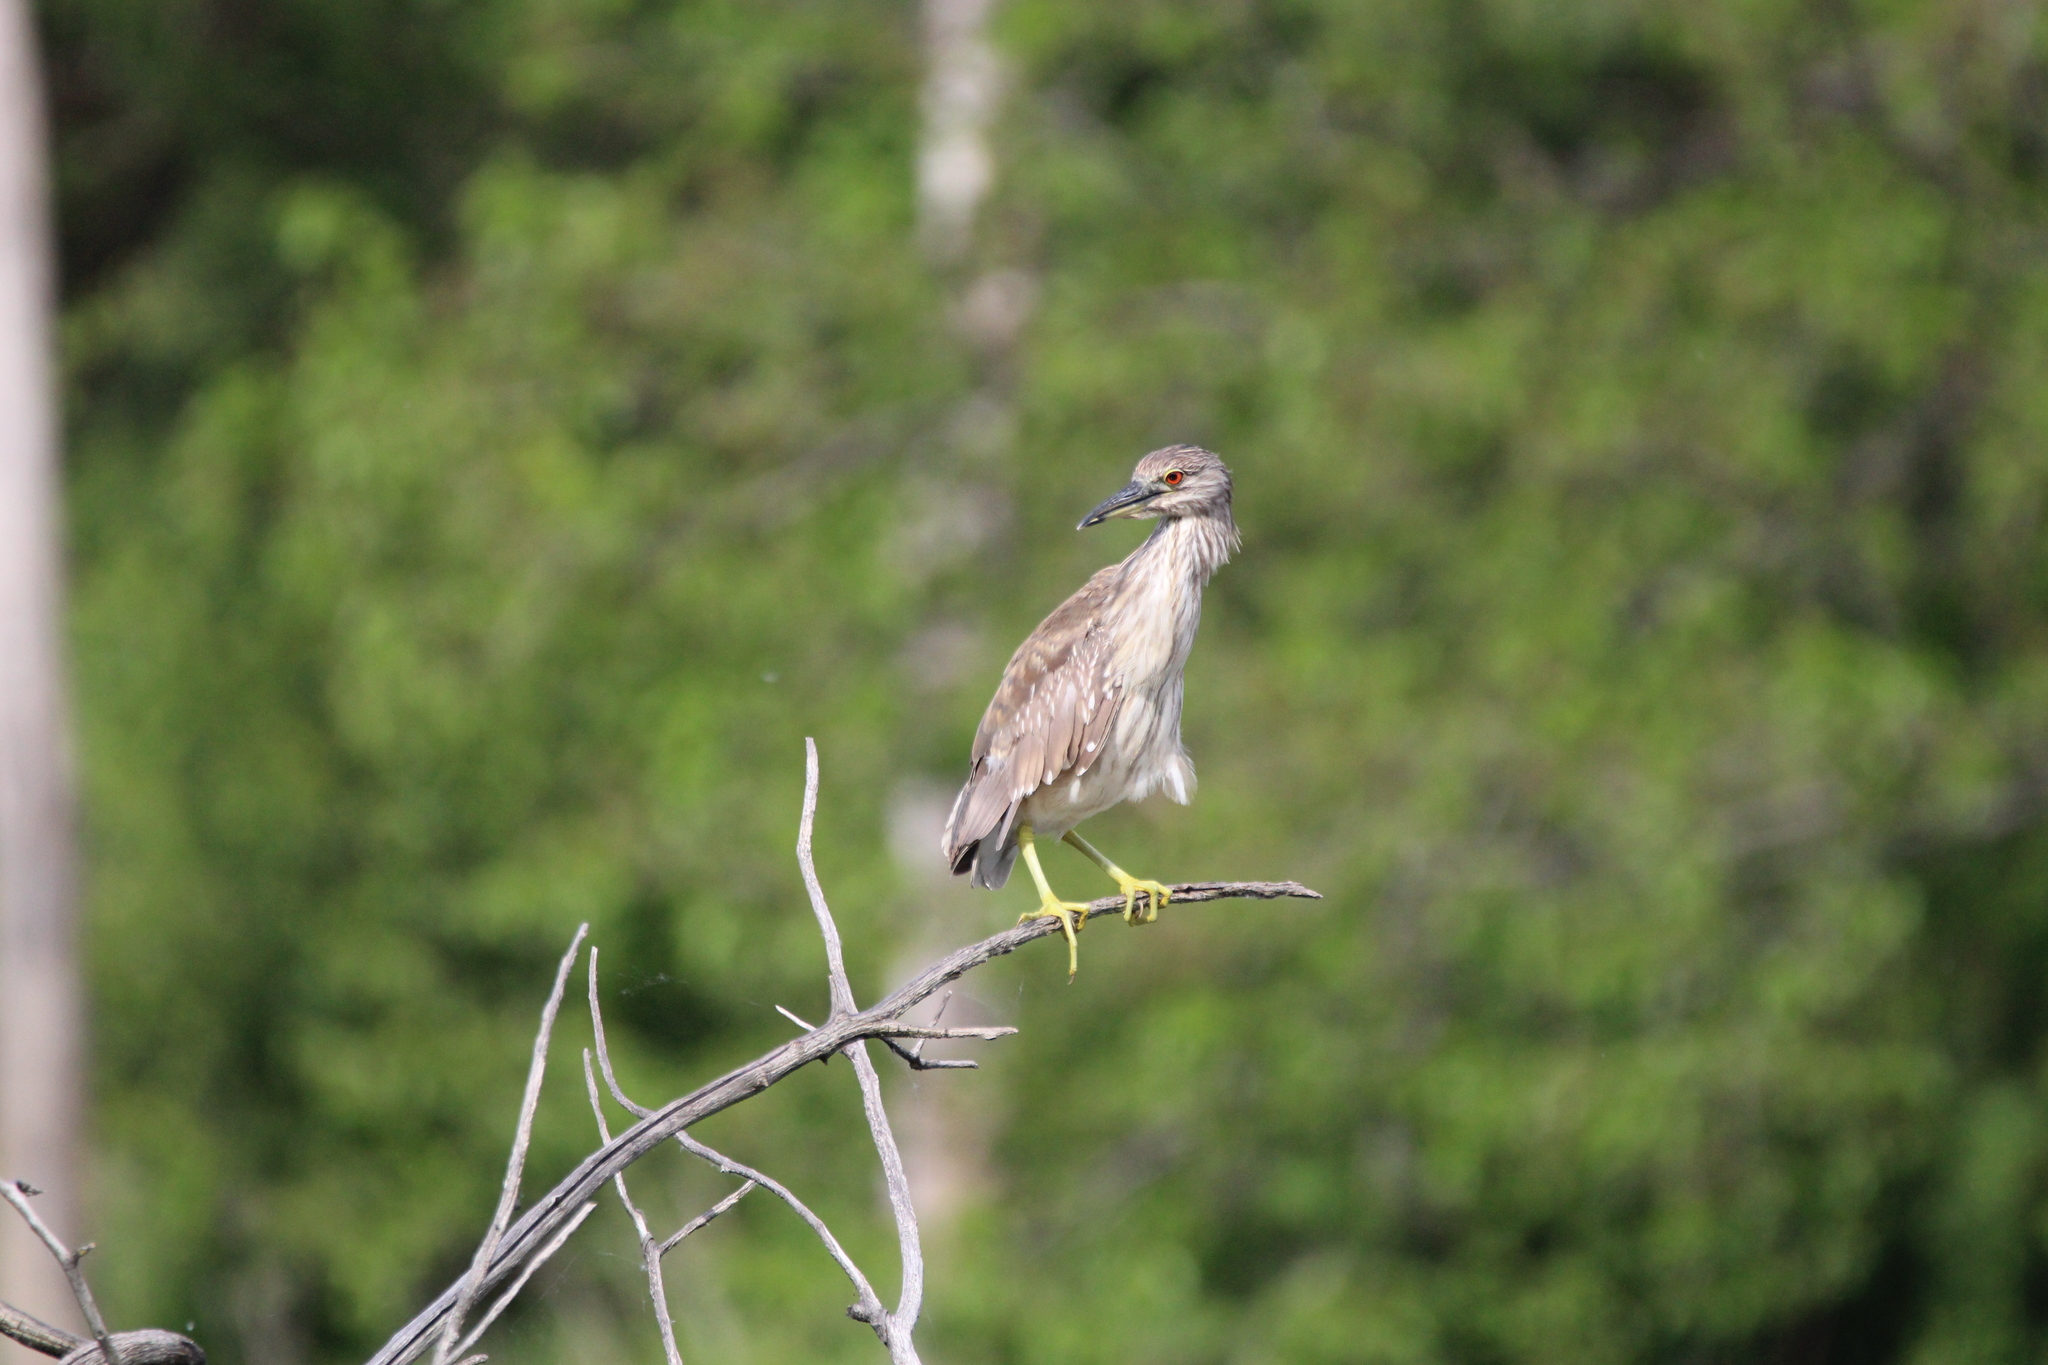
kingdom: Animalia
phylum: Chordata
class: Aves
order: Pelecaniformes
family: Ardeidae
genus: Nycticorax
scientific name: Nycticorax nycticorax
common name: Black-crowned night heron
